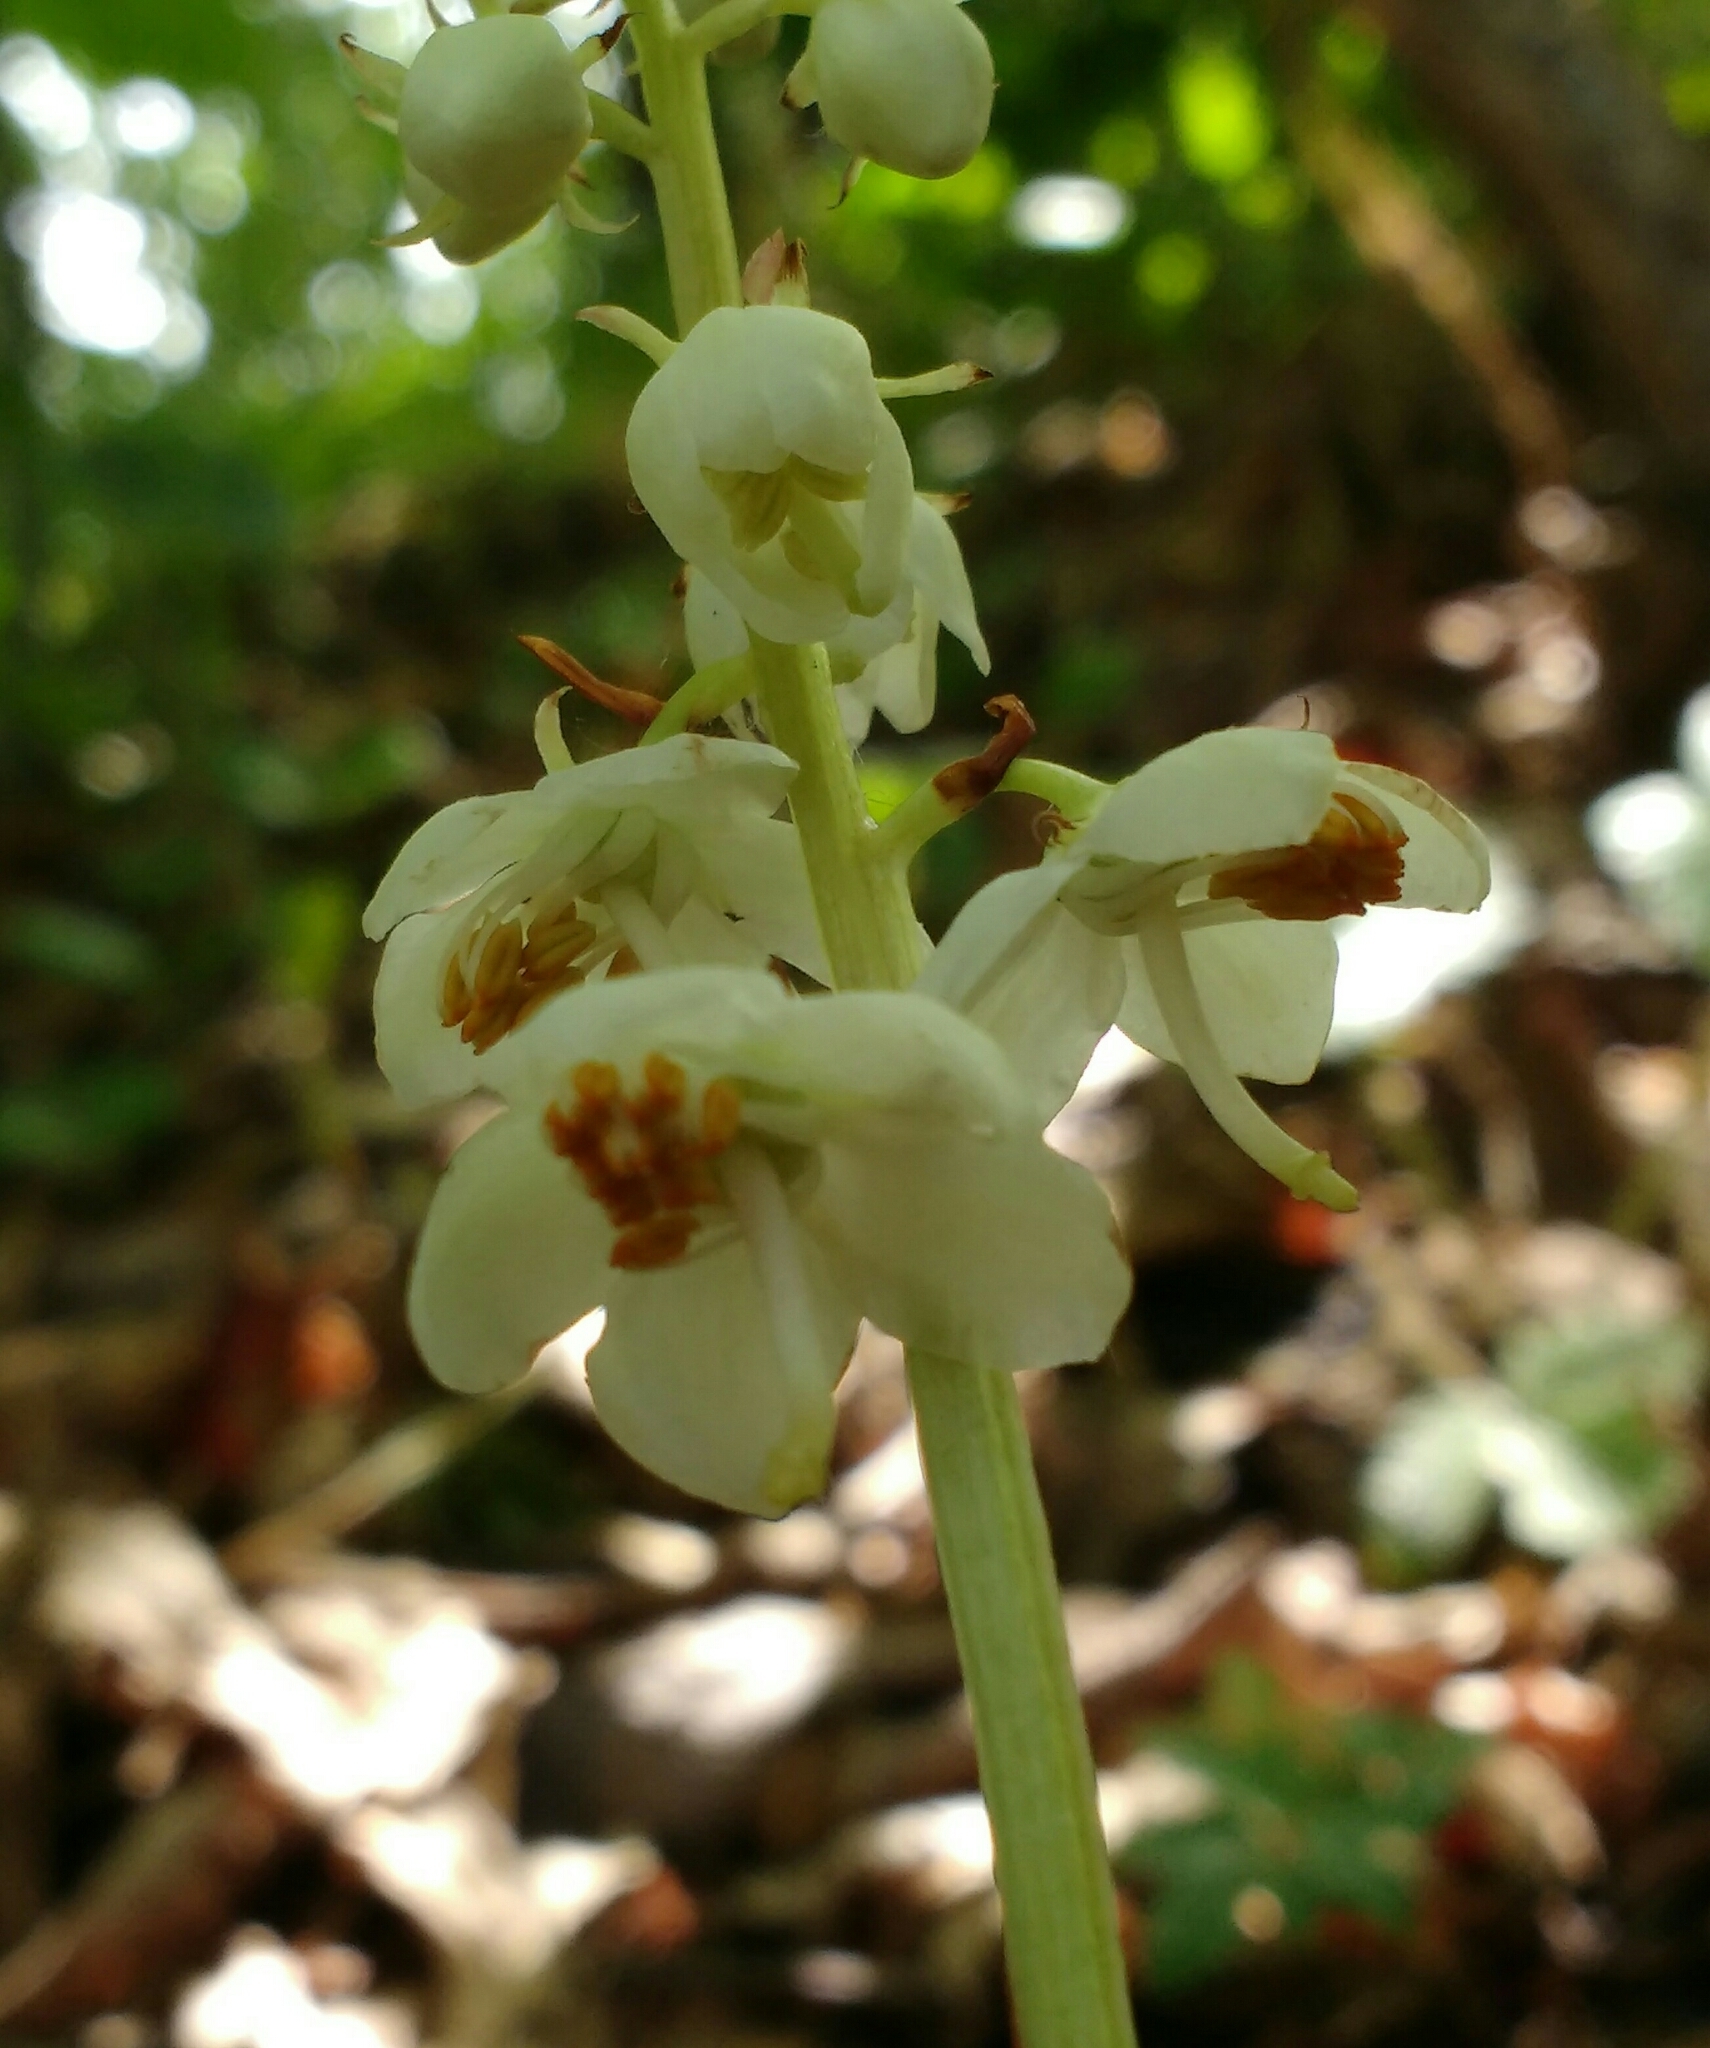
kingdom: Plantae
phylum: Tracheophyta
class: Magnoliopsida
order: Ericales
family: Ericaceae
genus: Pyrola
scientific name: Pyrola rotundifolia
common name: Round-leaved wintergreen
